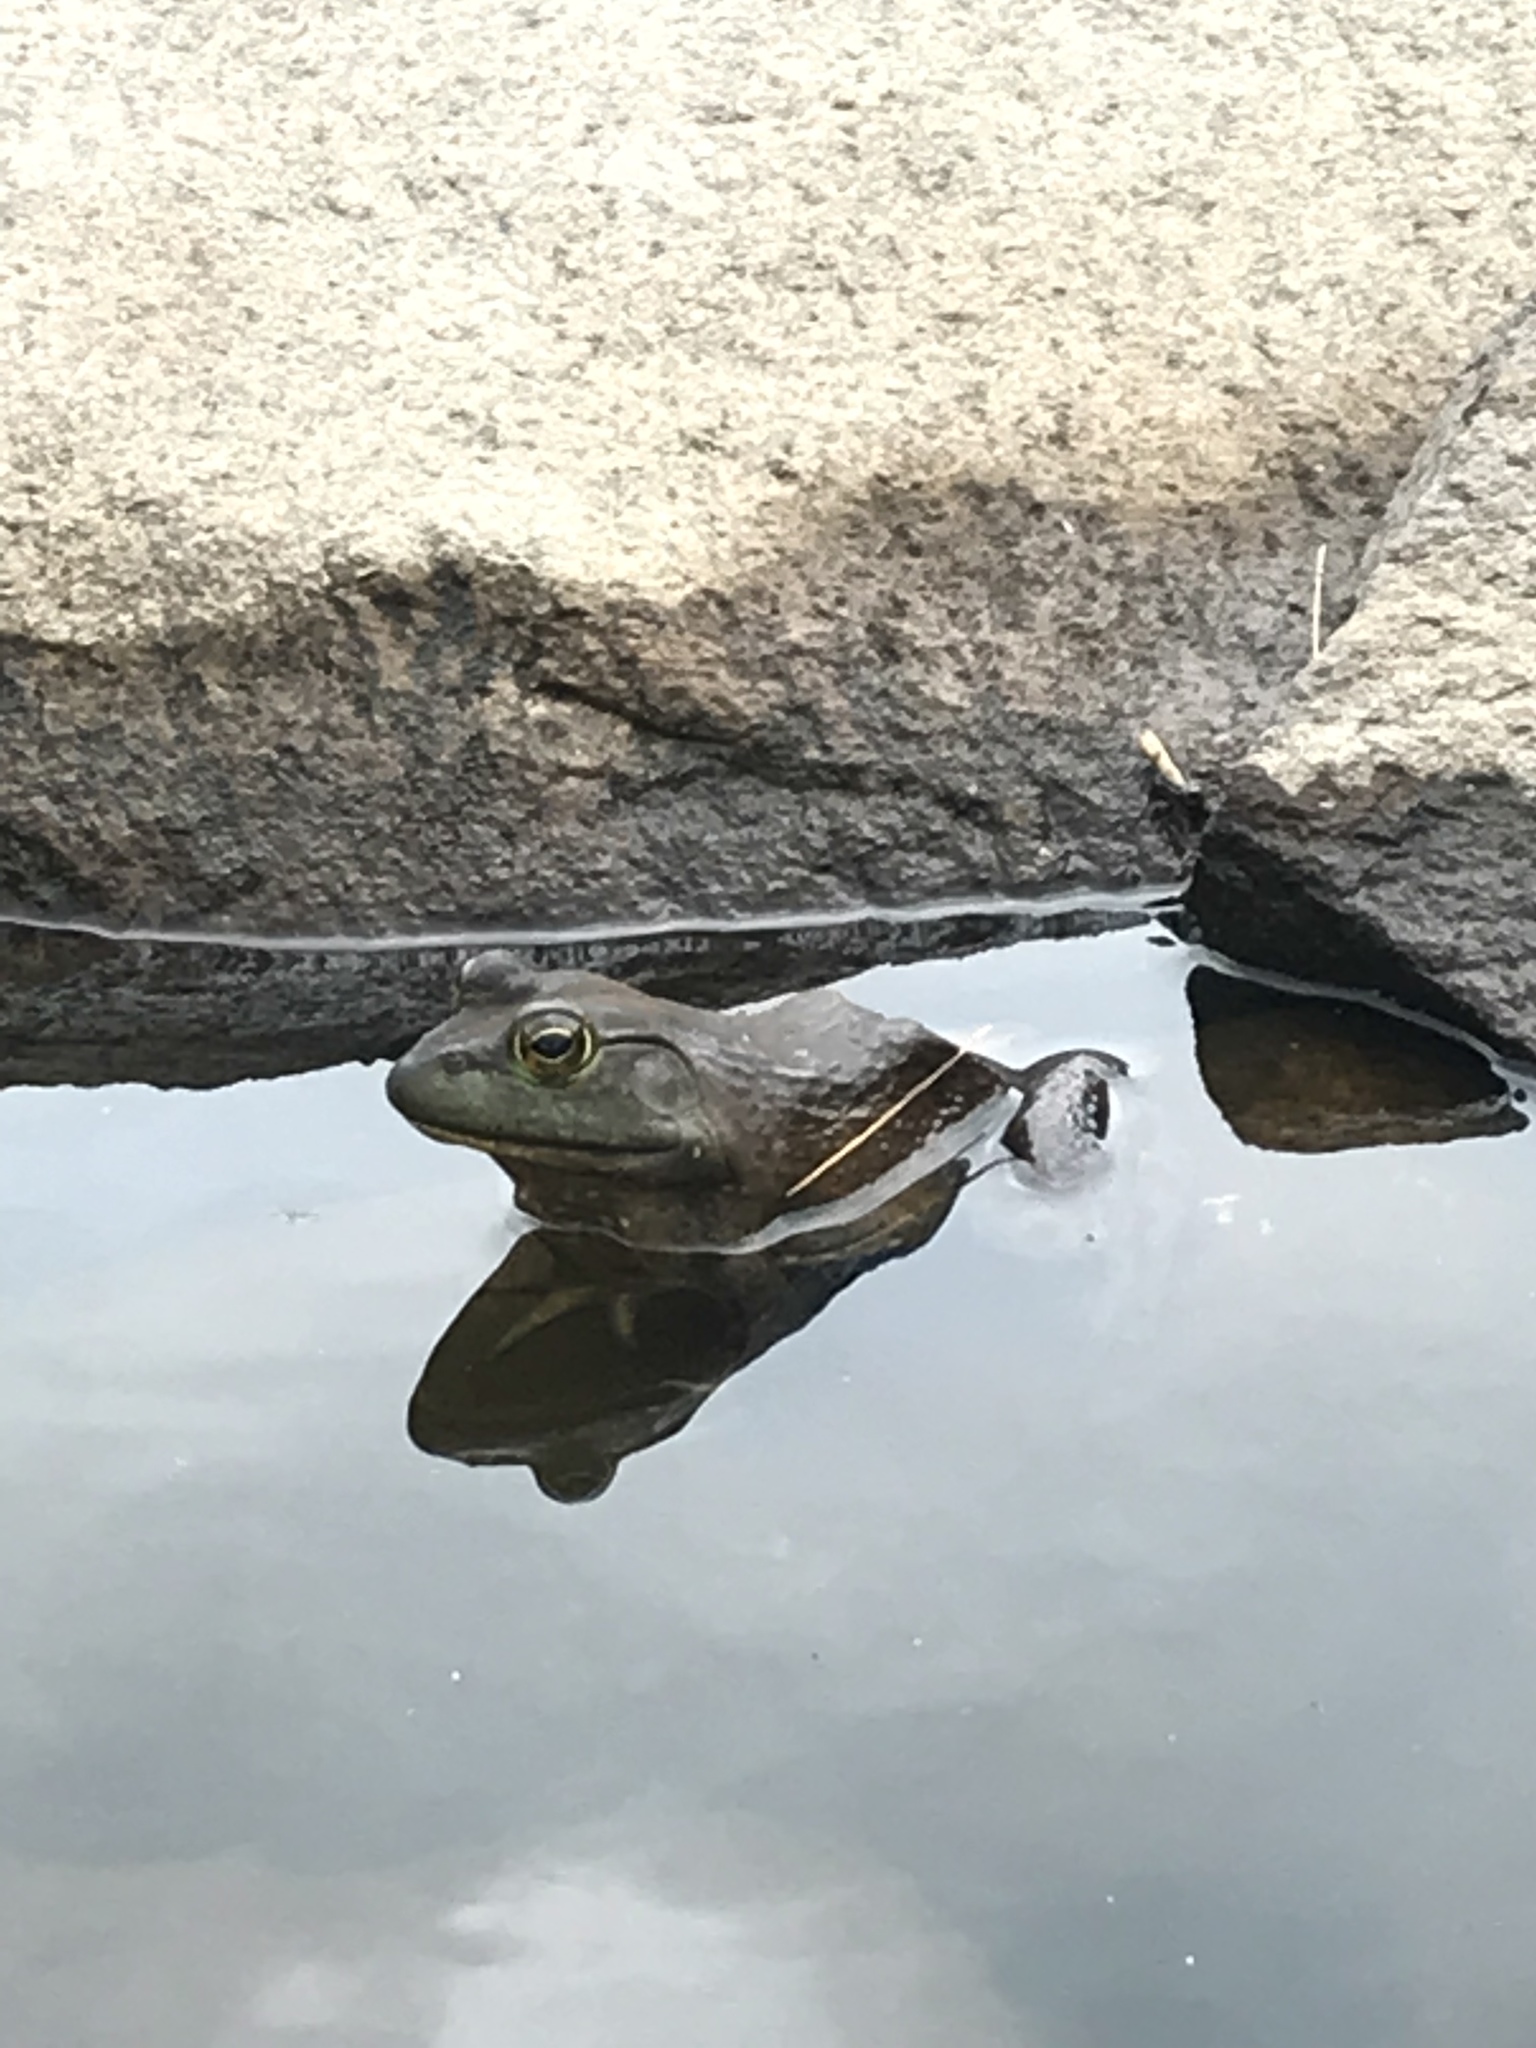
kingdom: Animalia
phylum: Chordata
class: Amphibia
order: Anura
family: Ranidae
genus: Lithobates
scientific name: Lithobates catesbeianus
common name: American bullfrog
